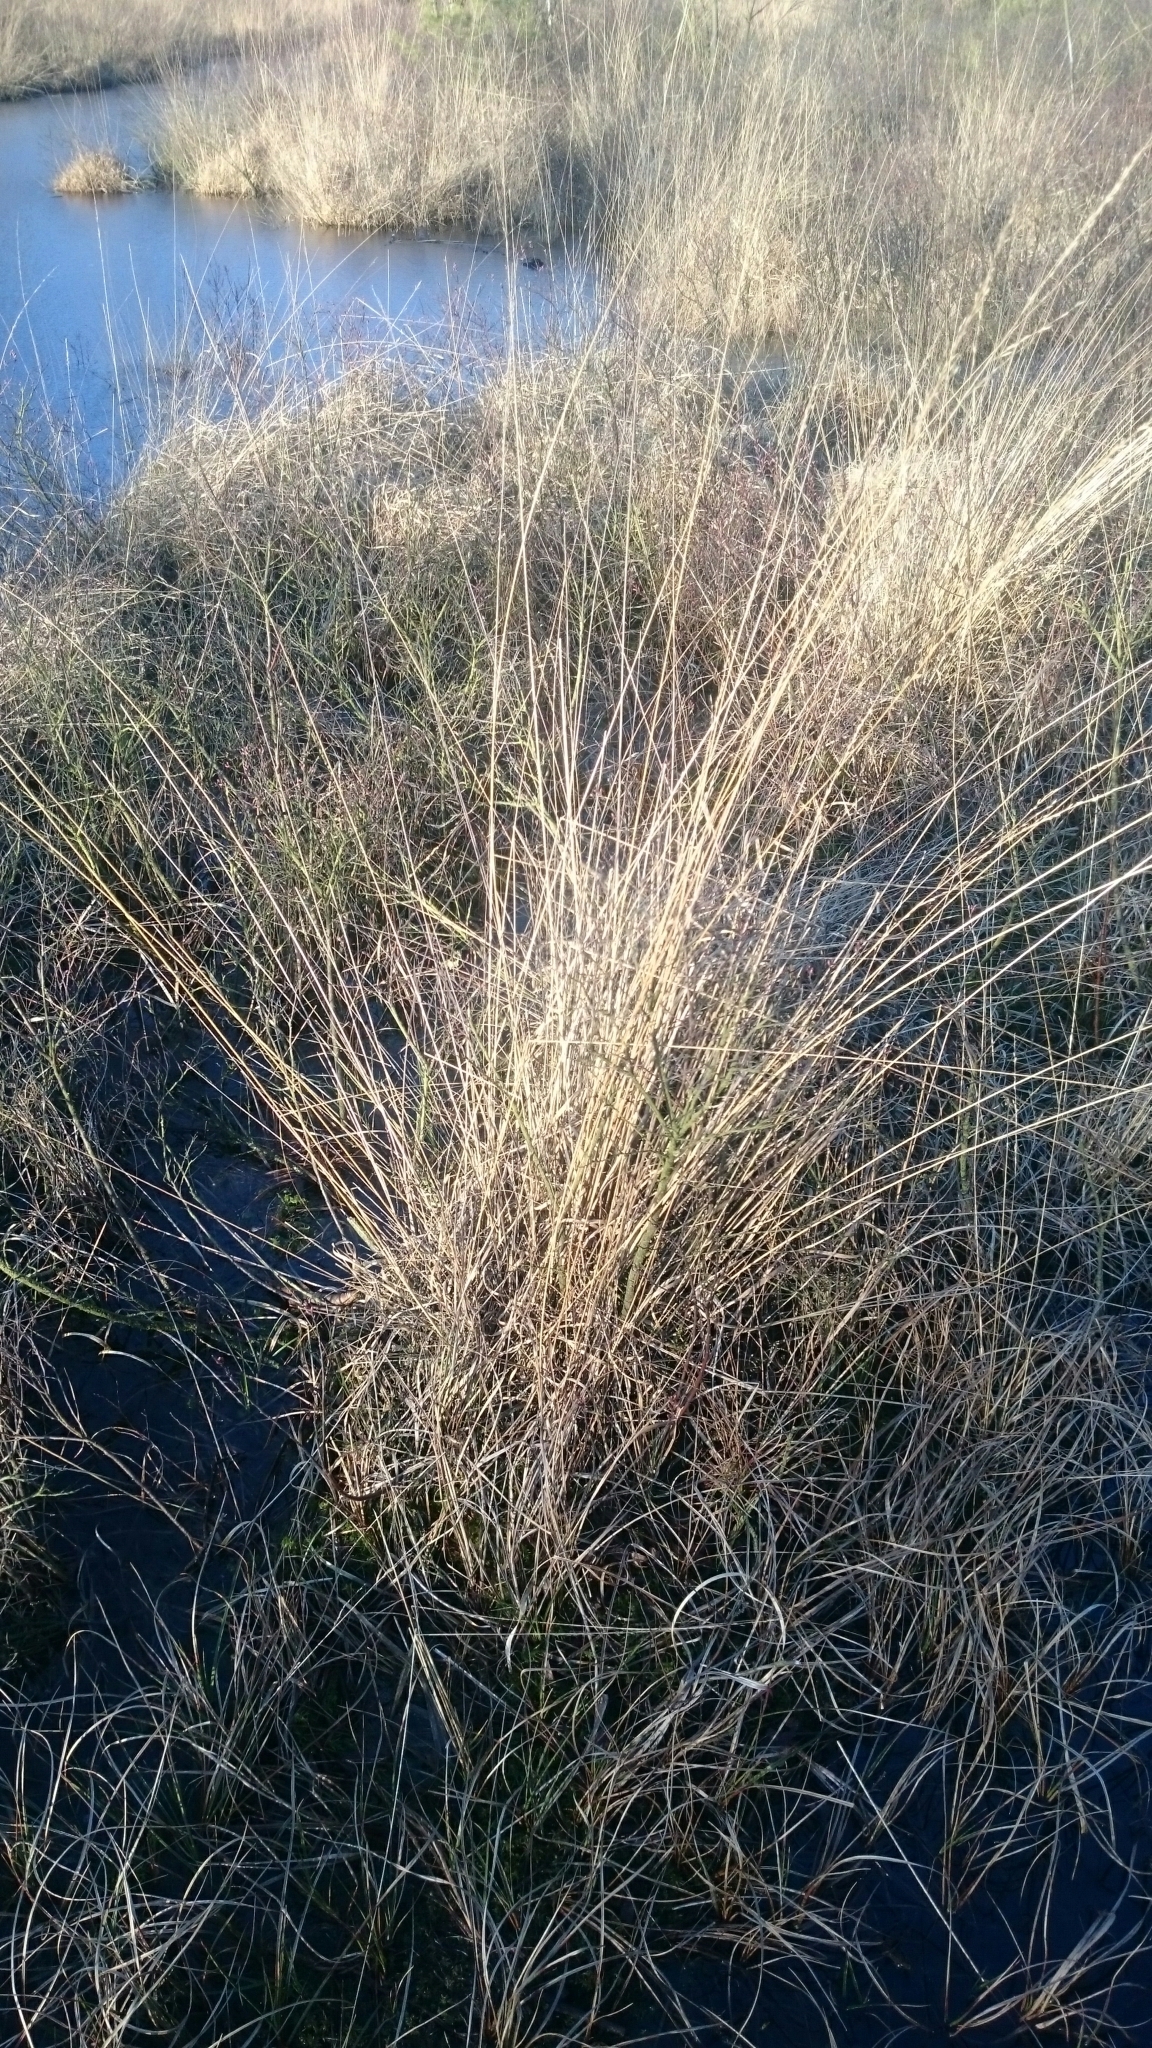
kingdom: Plantae
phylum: Tracheophyta
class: Liliopsida
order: Poales
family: Poaceae
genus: Molinia
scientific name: Molinia caerulea
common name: Purple moor-grass
